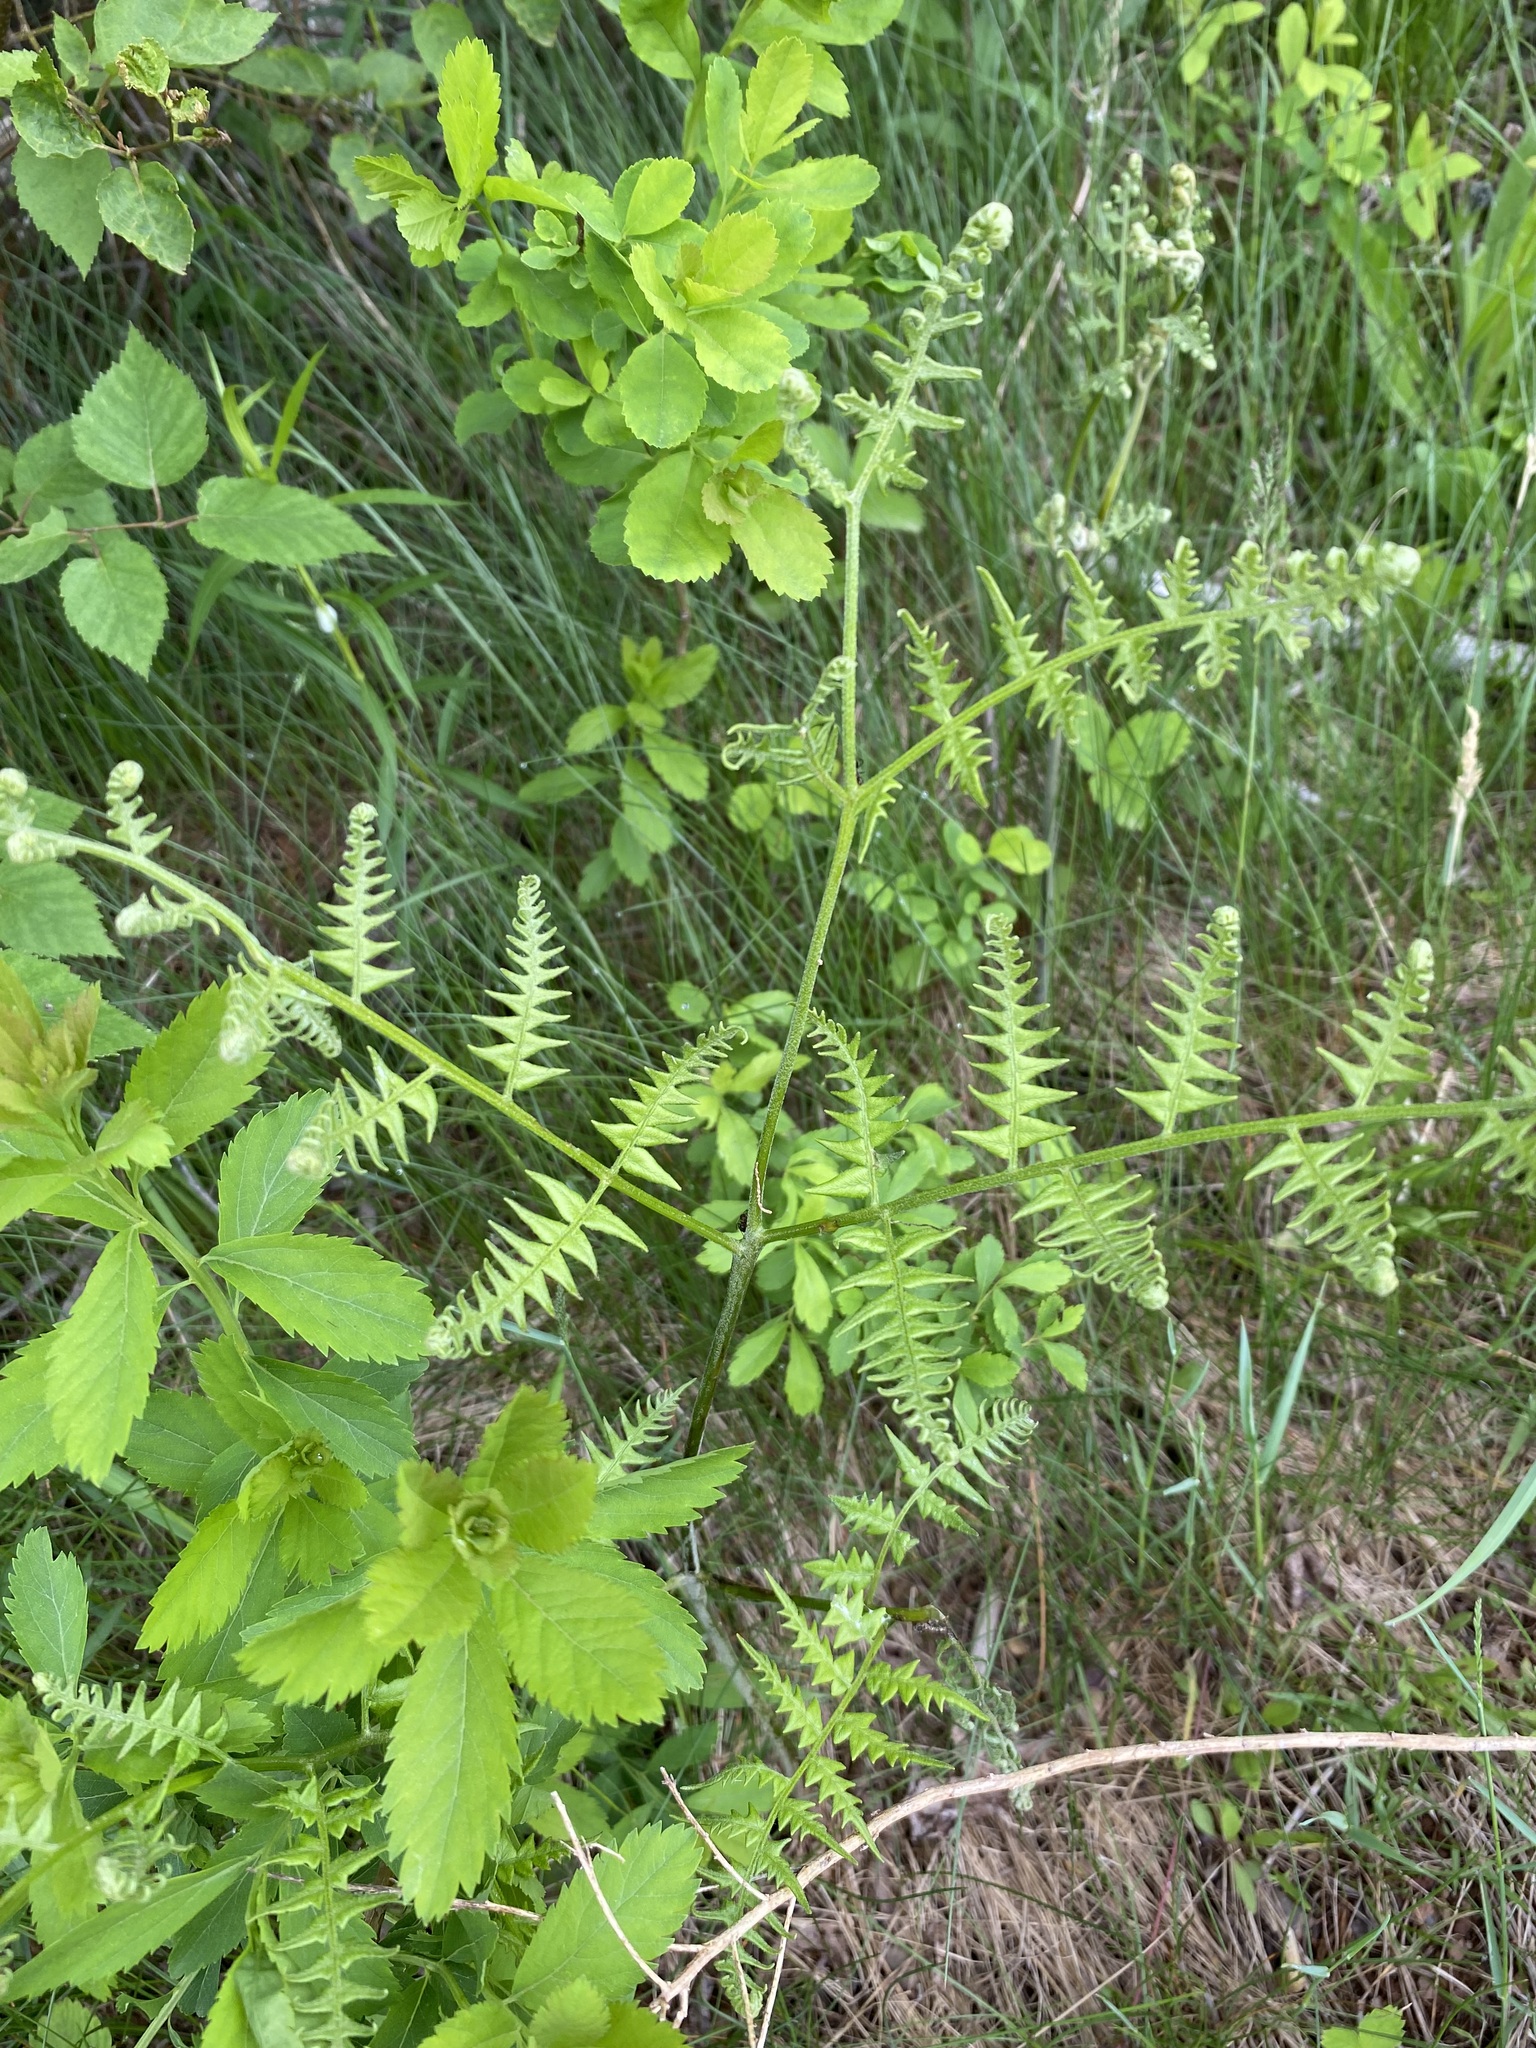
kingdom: Plantae
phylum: Tracheophyta
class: Polypodiopsida
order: Polypodiales
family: Dennstaedtiaceae
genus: Pteridium
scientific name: Pteridium aquilinum
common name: Bracken
